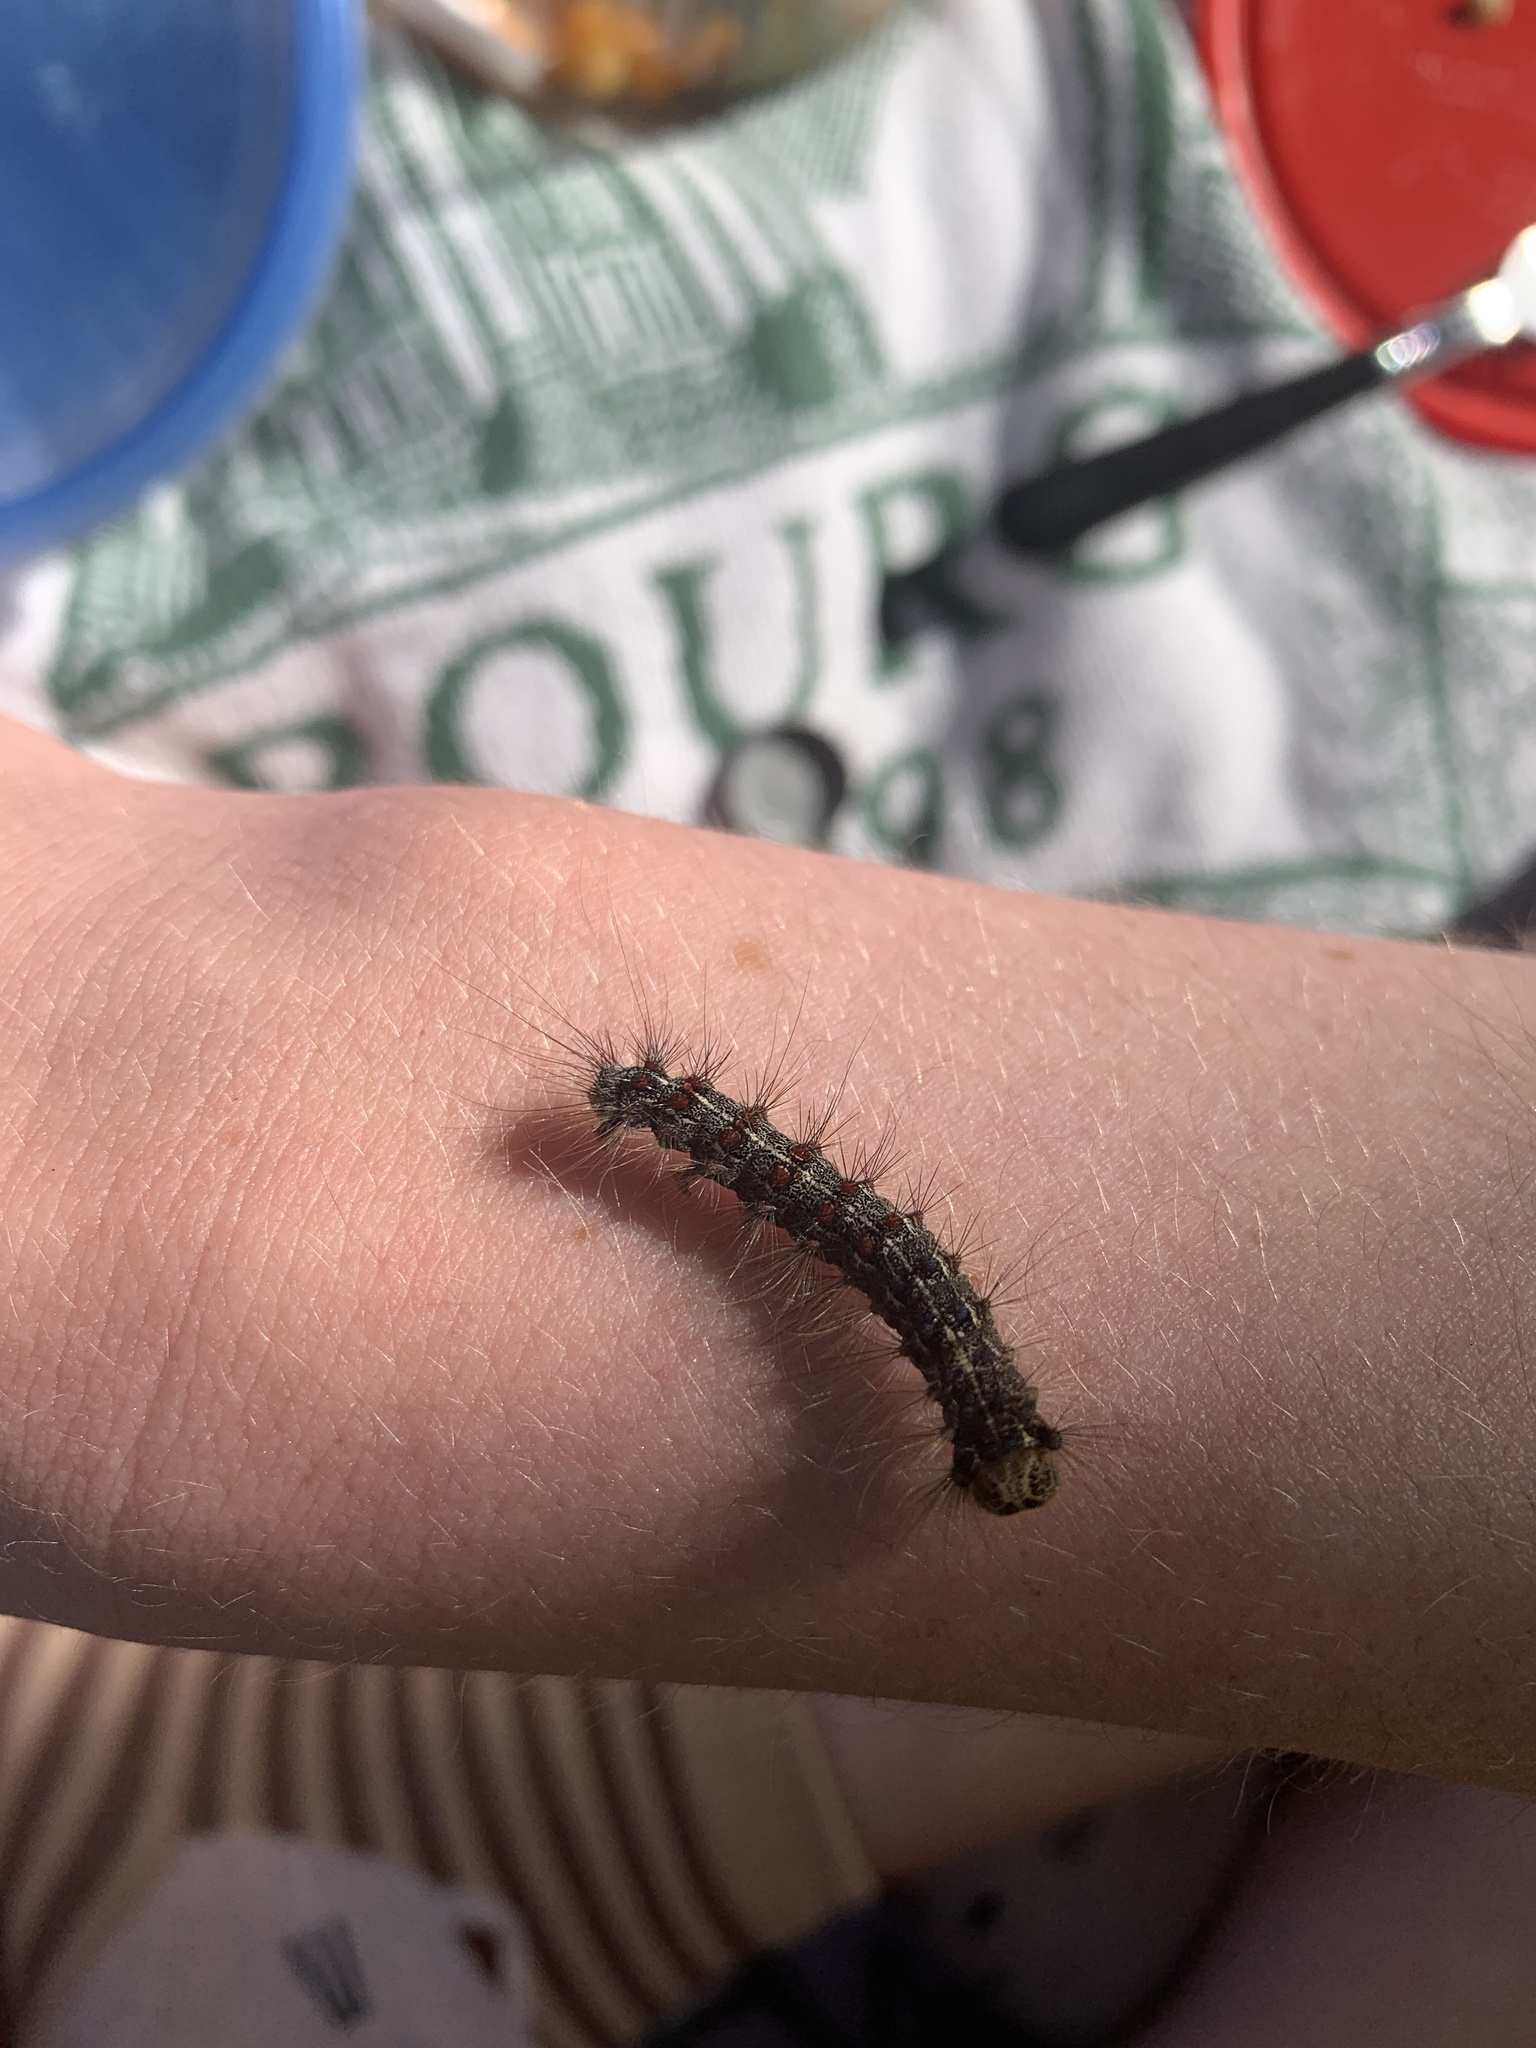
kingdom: Animalia
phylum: Arthropoda
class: Insecta
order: Lepidoptera
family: Erebidae
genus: Lymantria
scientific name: Lymantria dispar
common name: Gypsy moth
